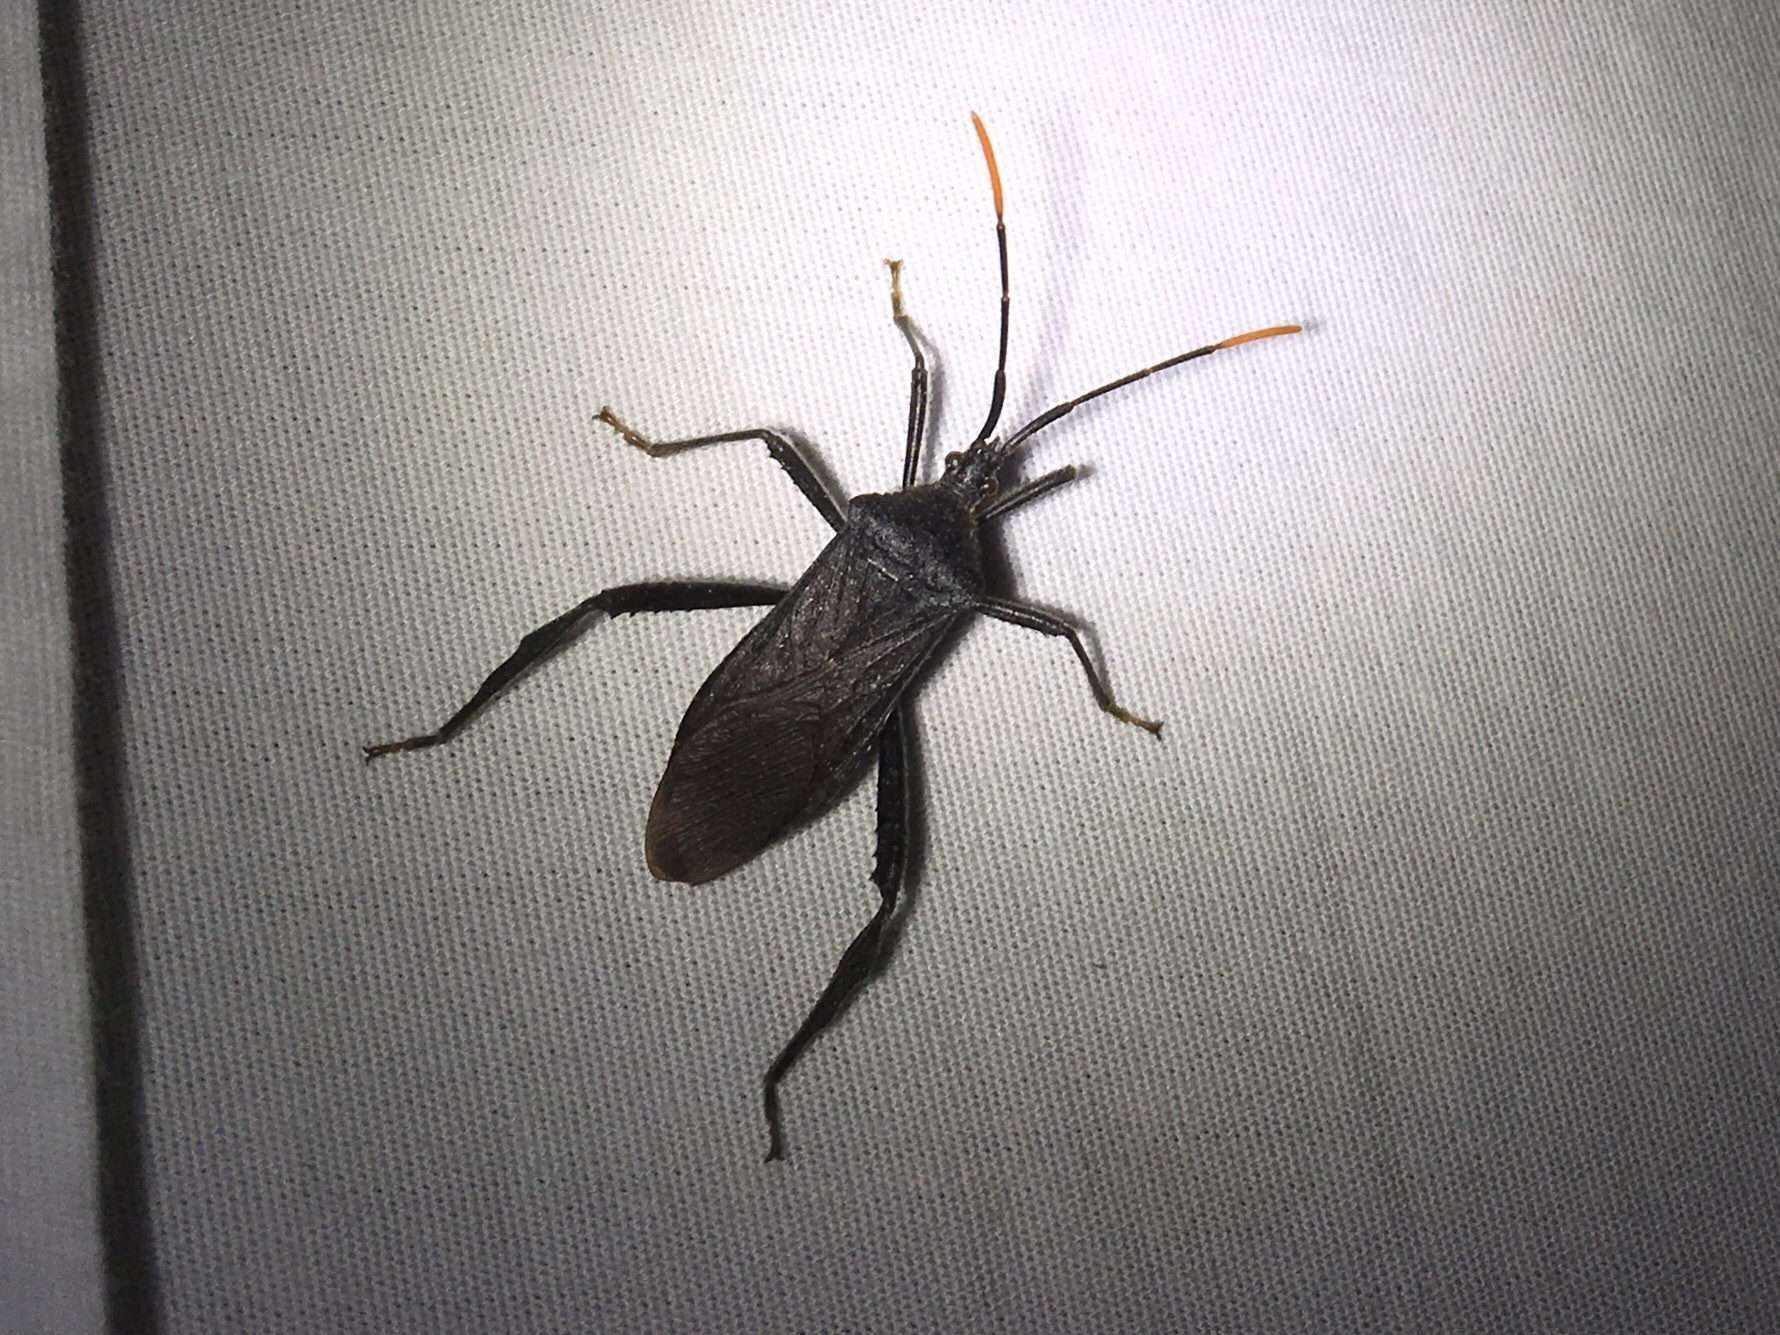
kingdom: Animalia
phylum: Arthropoda
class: Insecta
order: Hemiptera
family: Coreidae
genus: Acanthocephala
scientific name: Acanthocephala terminalis
